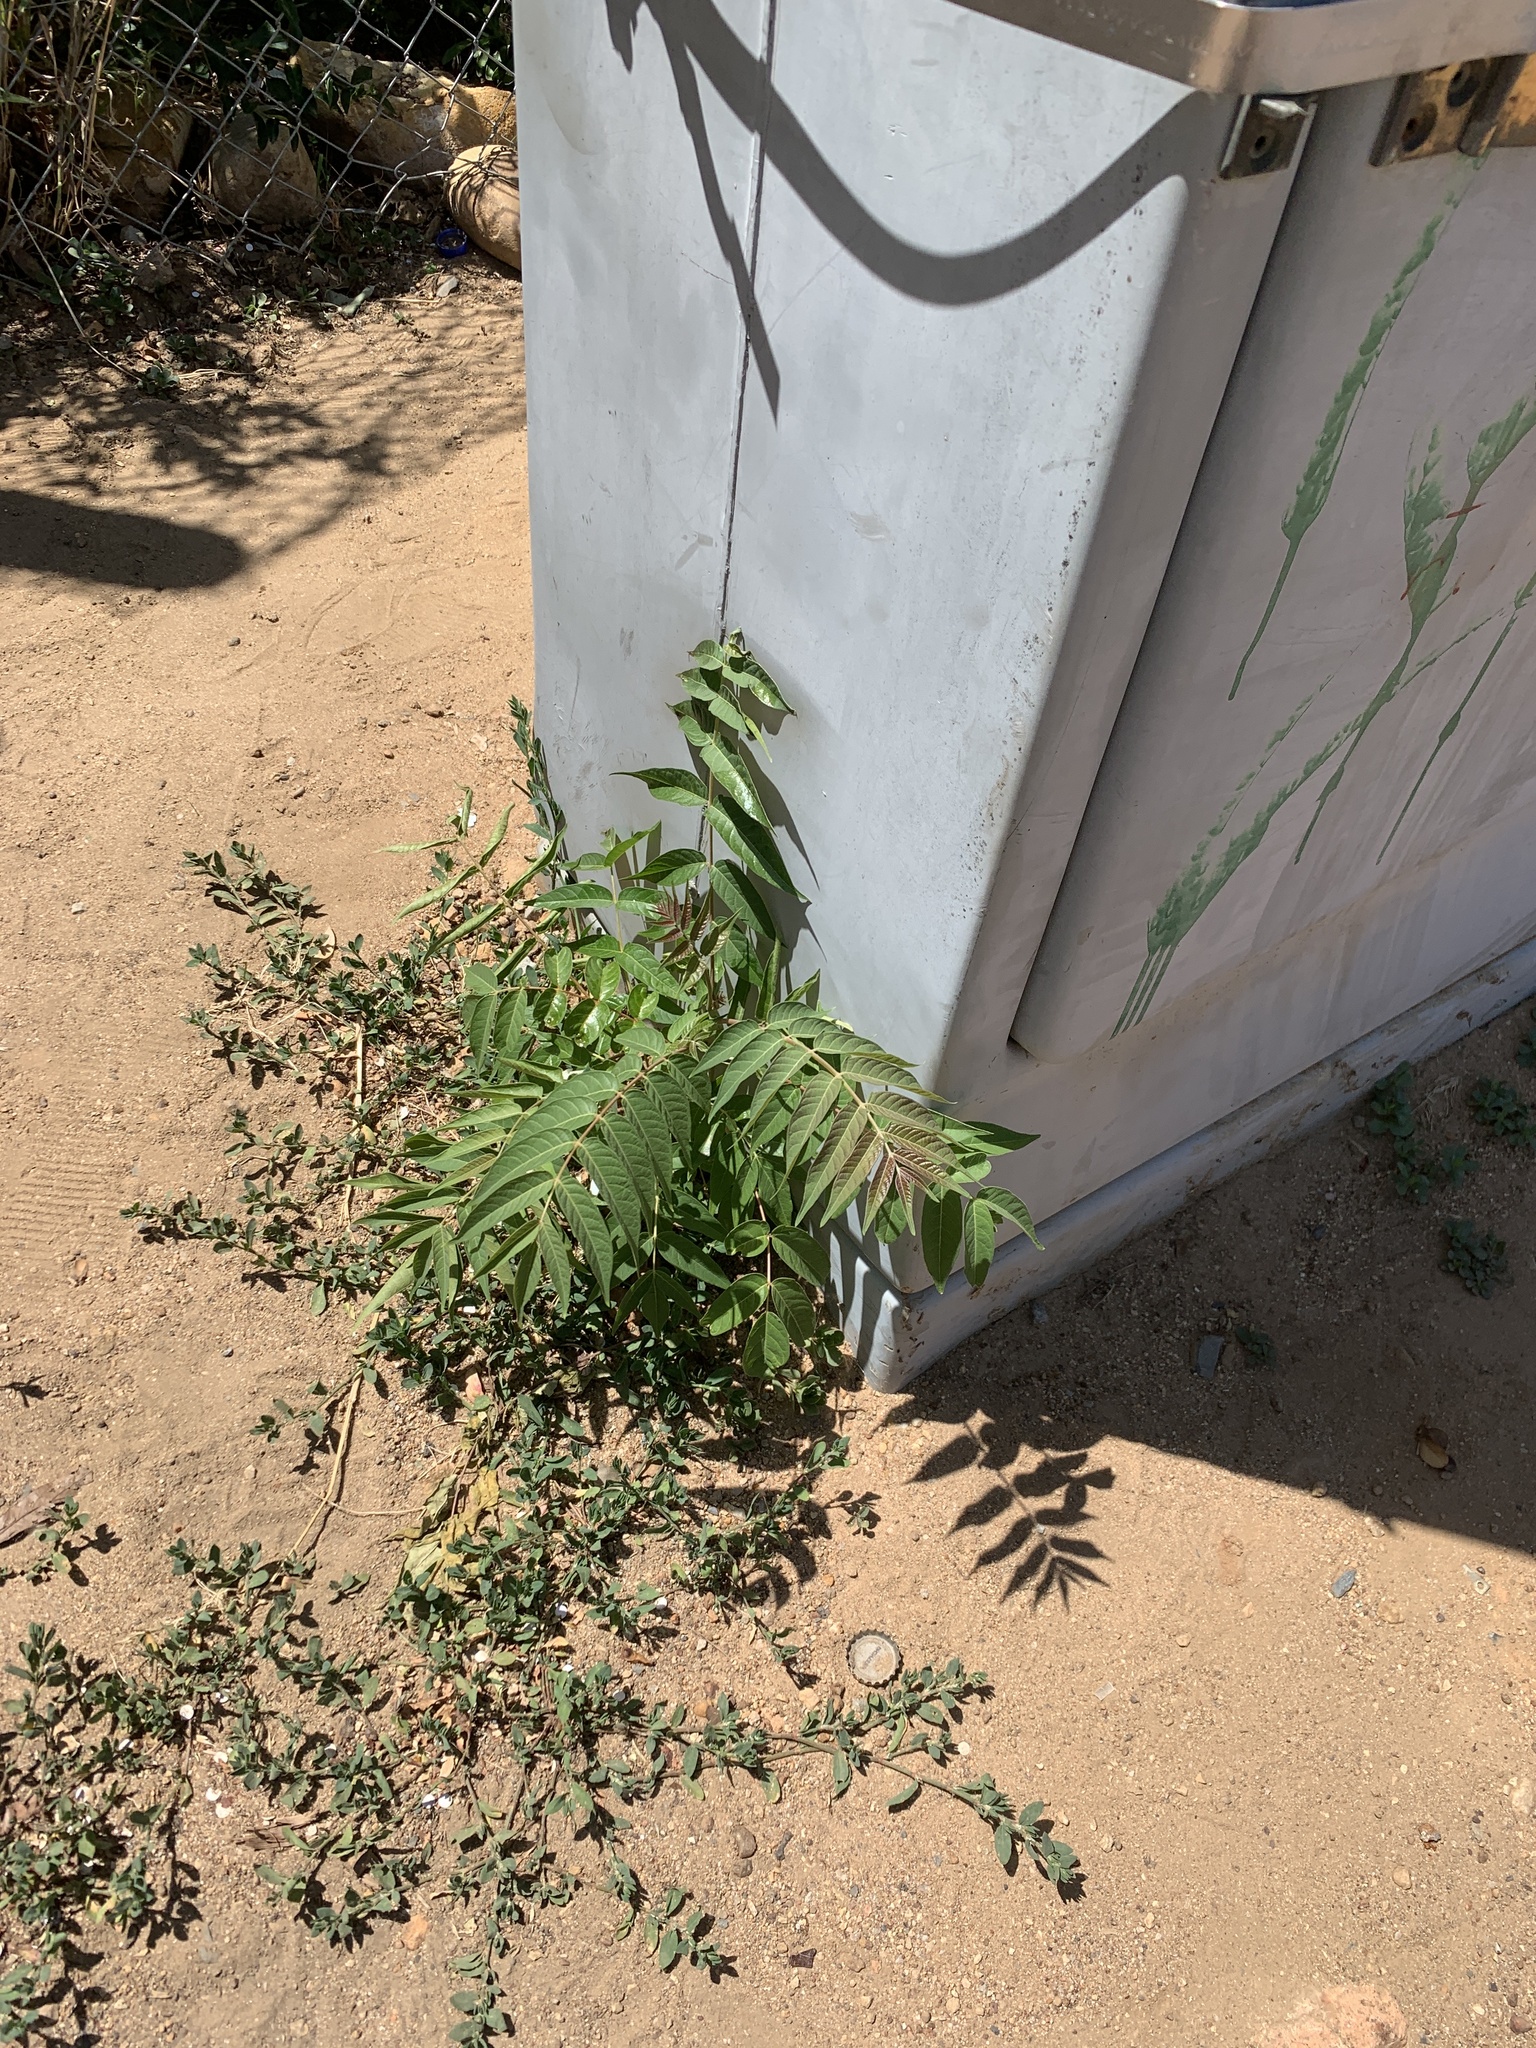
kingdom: Plantae
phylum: Tracheophyta
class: Magnoliopsida
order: Sapindales
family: Simaroubaceae
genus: Ailanthus
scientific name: Ailanthus altissima
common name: Tree-of-heaven
